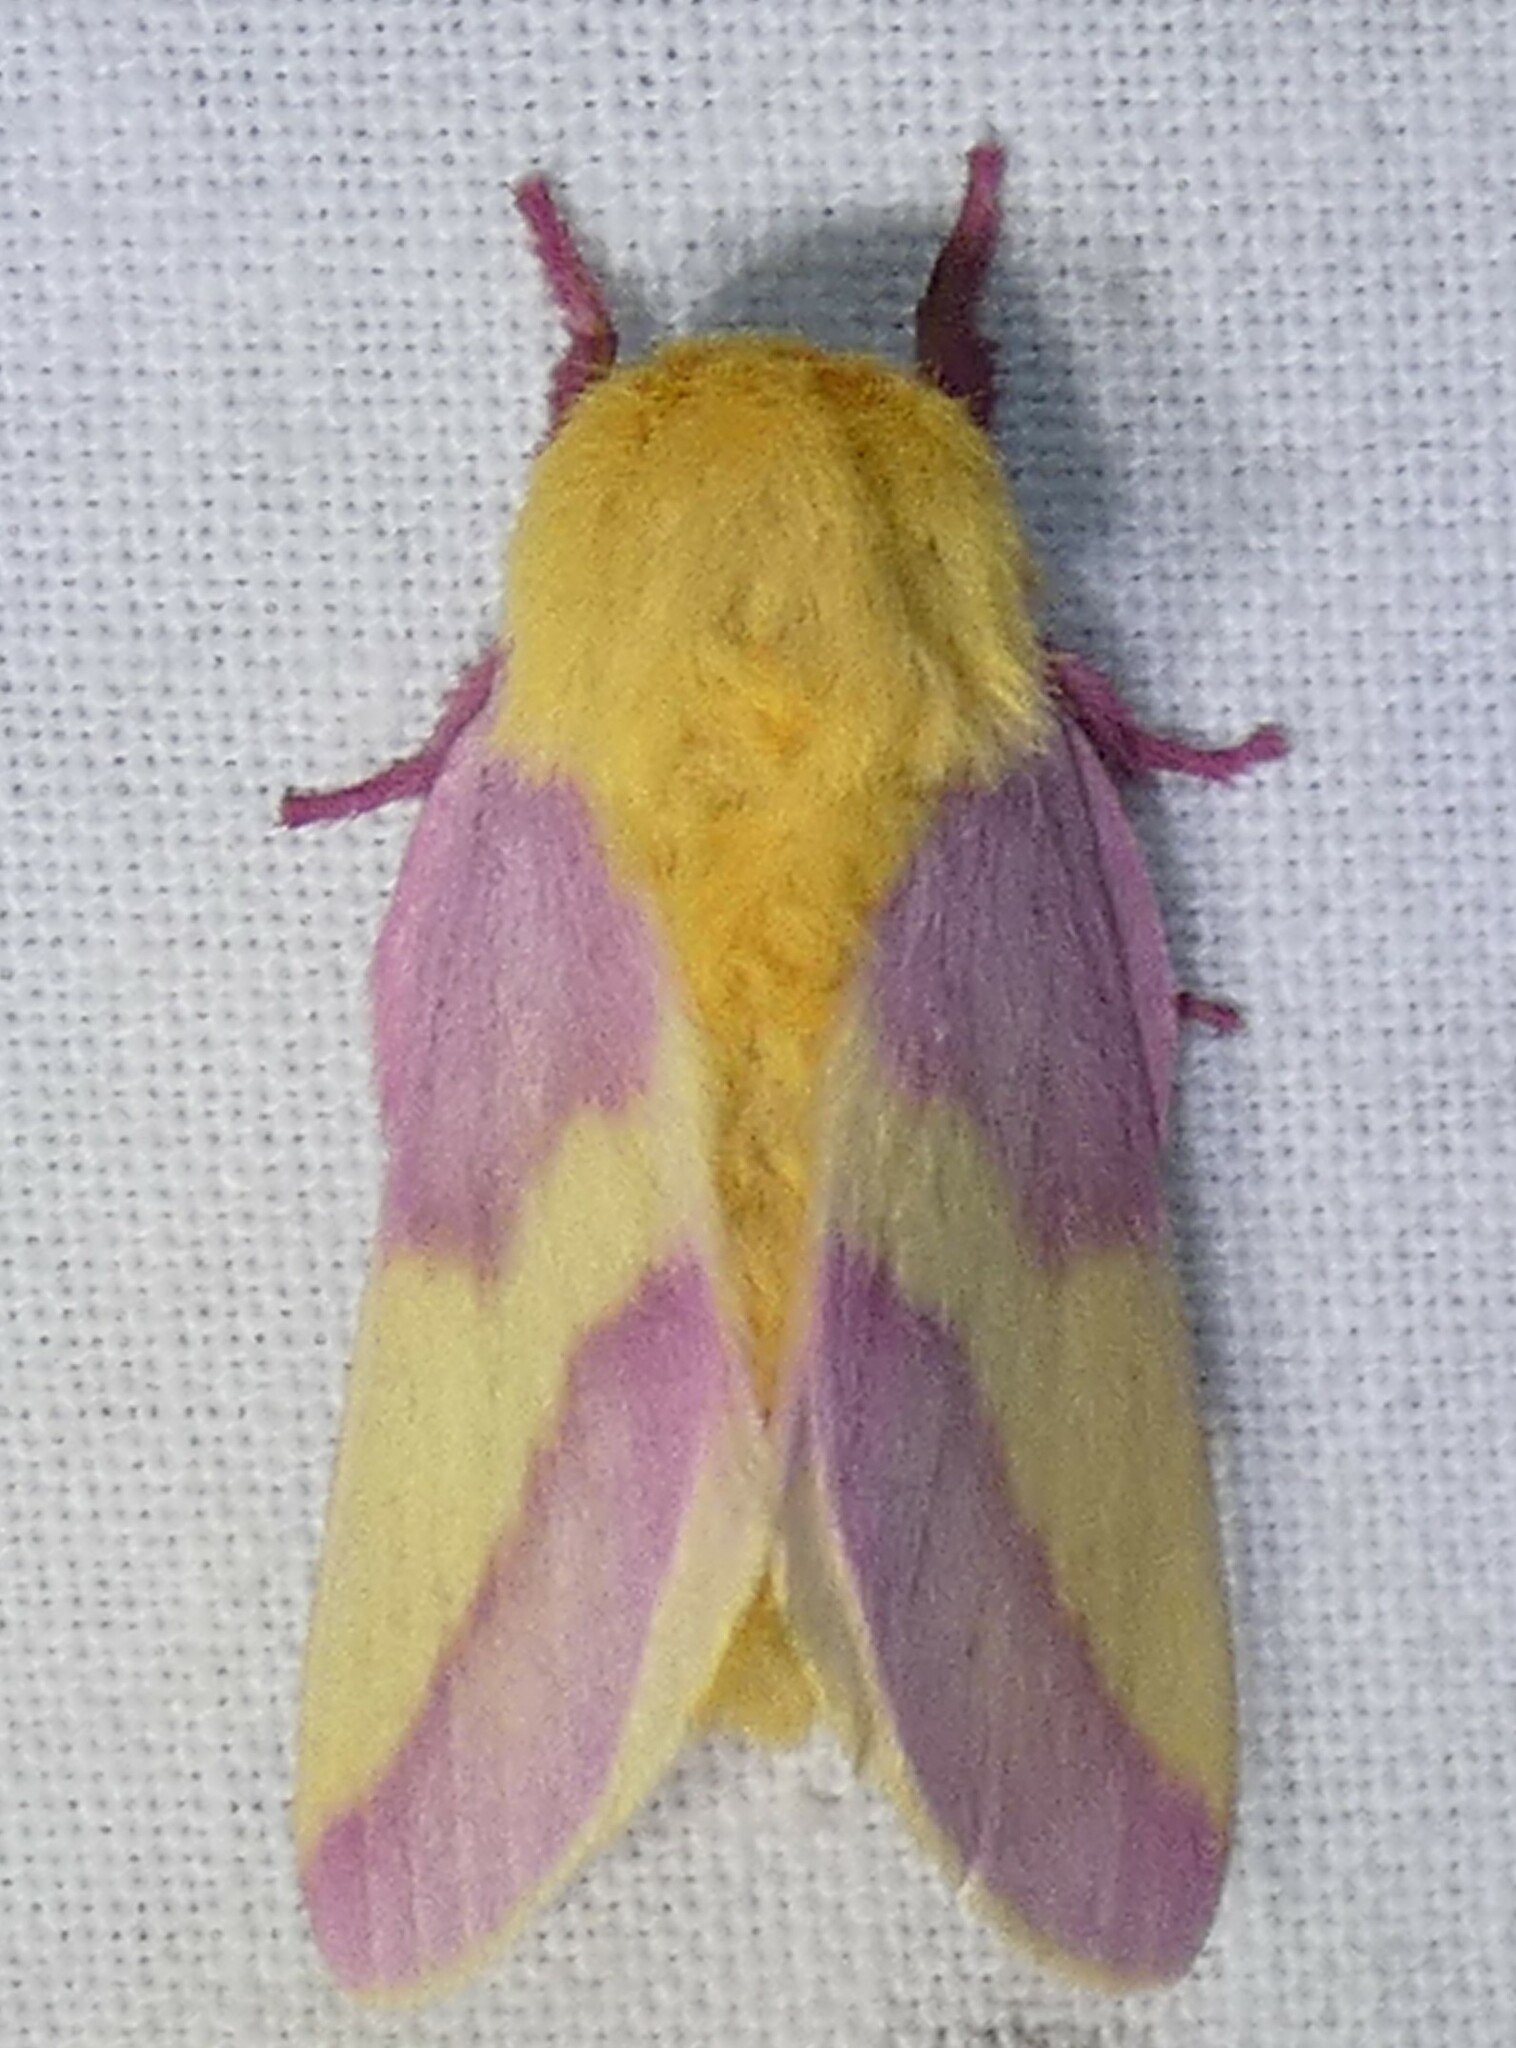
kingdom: Animalia
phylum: Arthropoda
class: Insecta
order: Lepidoptera
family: Saturniidae
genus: Dryocampa
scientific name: Dryocampa rubicunda
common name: Rosy maple moth
